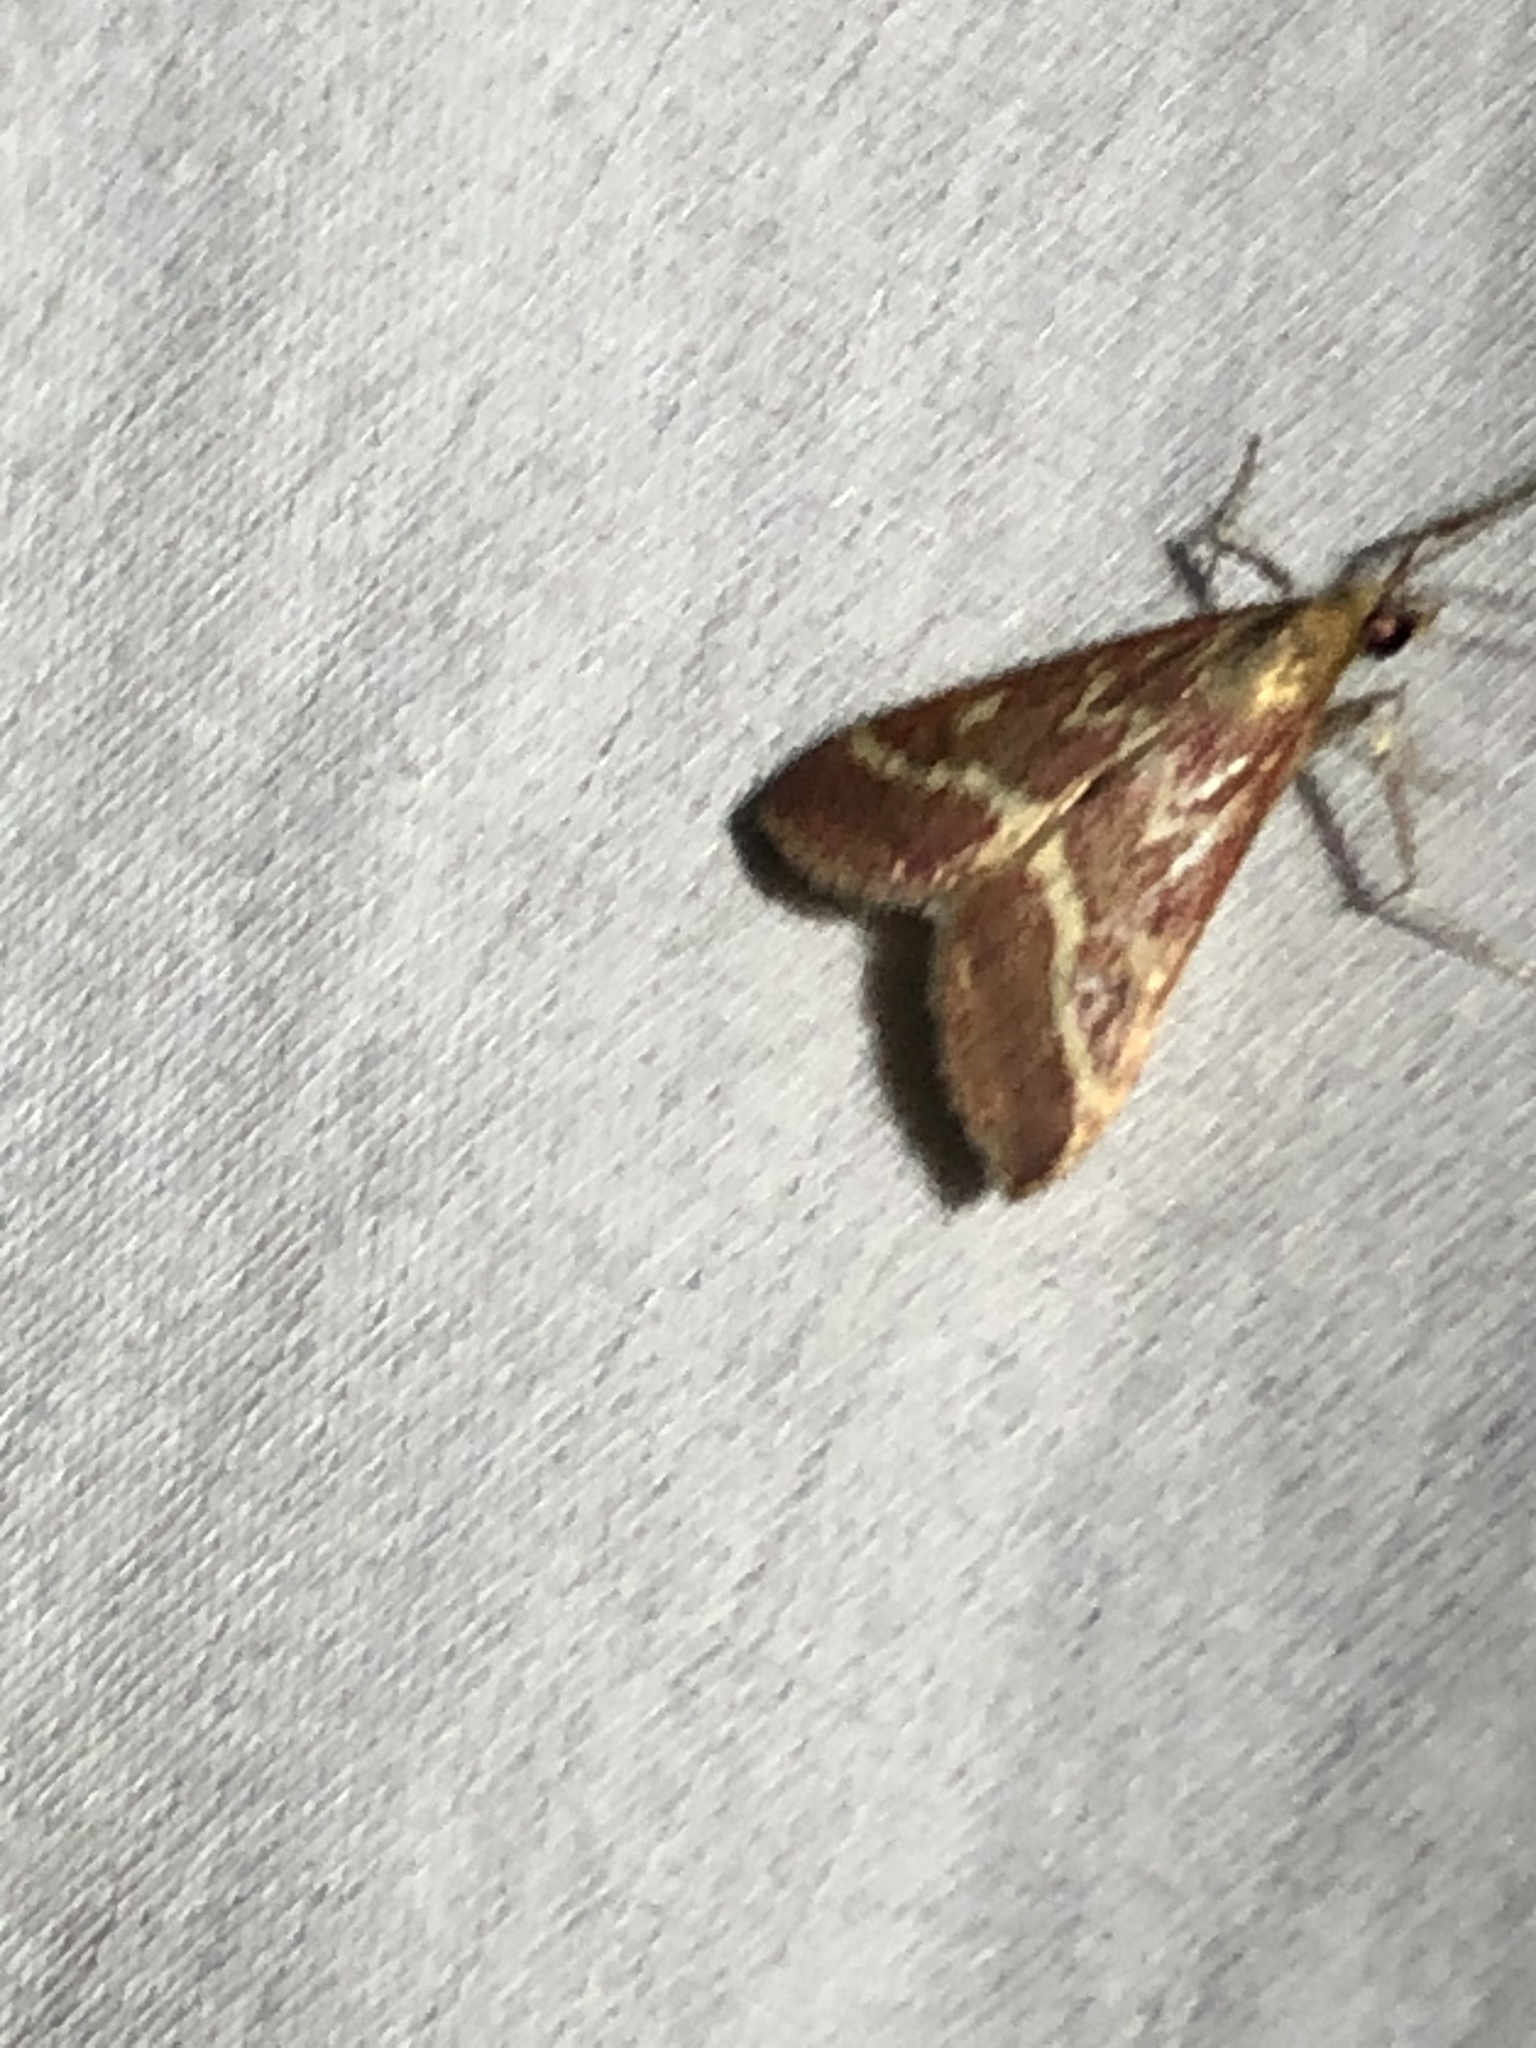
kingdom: Animalia
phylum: Arthropoda
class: Insecta
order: Lepidoptera
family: Crambidae
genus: Pyrausta
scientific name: Pyrausta volupialis
